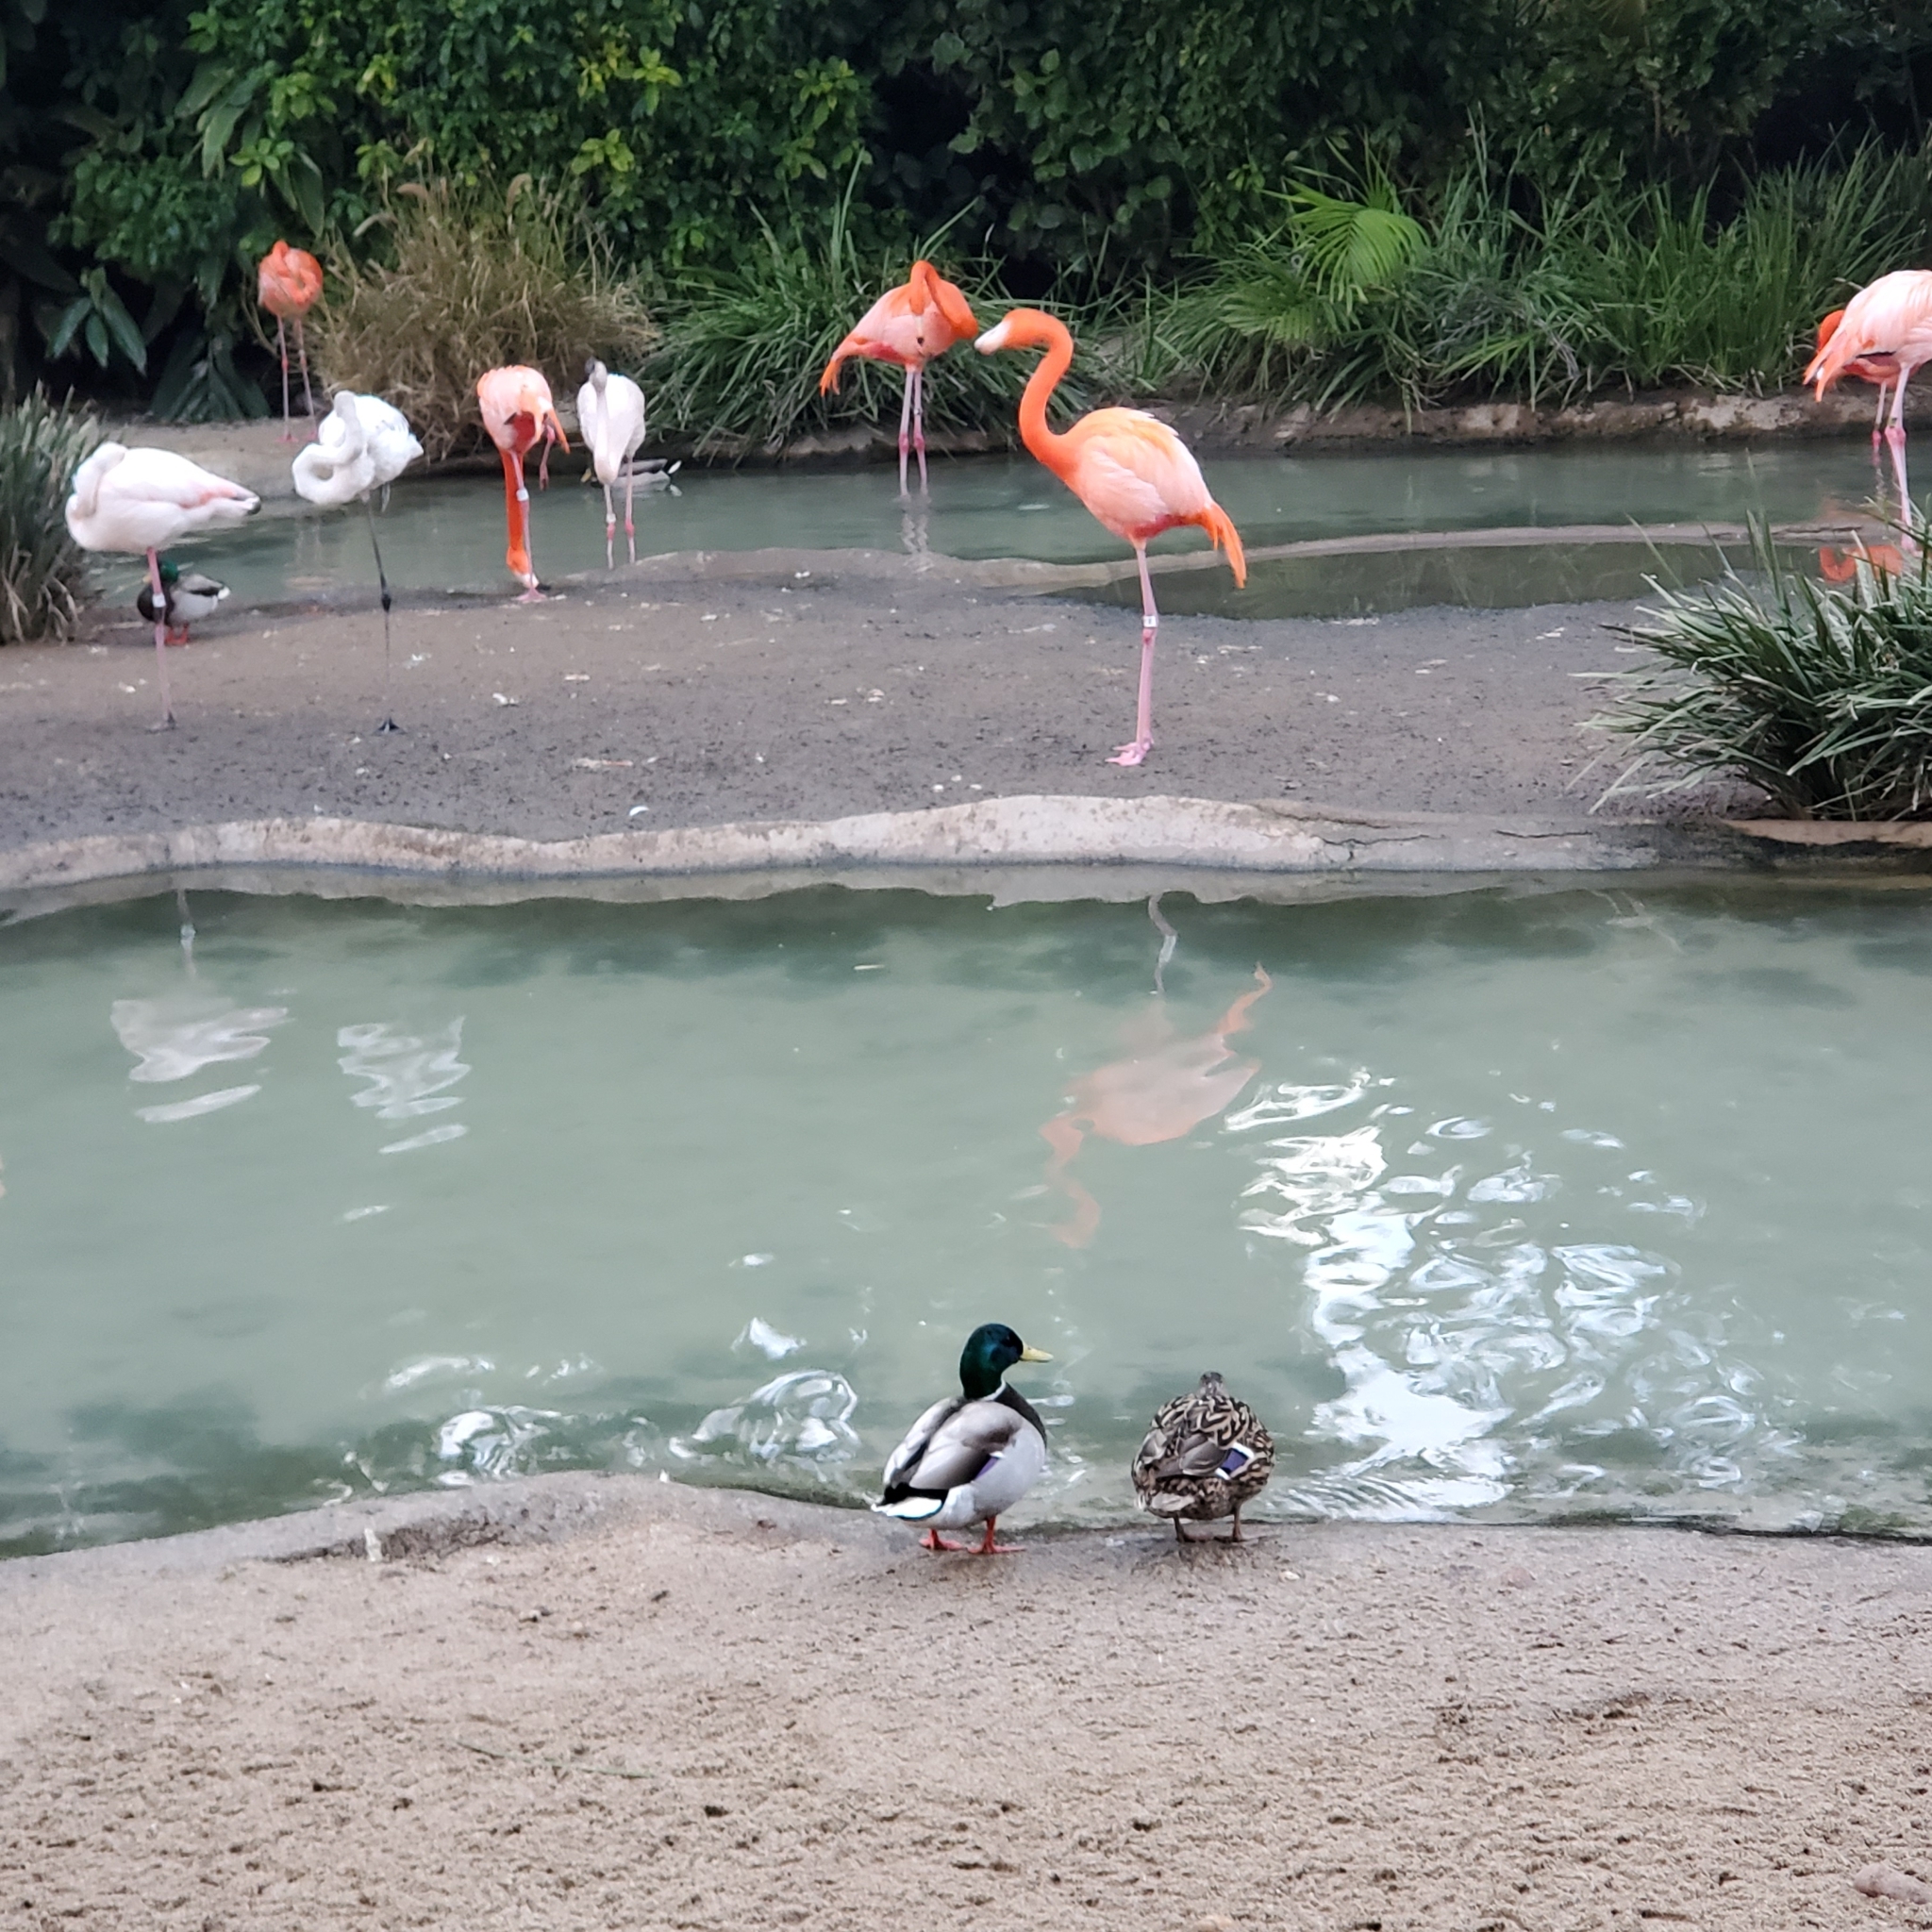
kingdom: Animalia
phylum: Chordata
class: Aves
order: Anseriformes
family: Anatidae
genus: Anas
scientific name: Anas platyrhynchos
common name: Mallard
